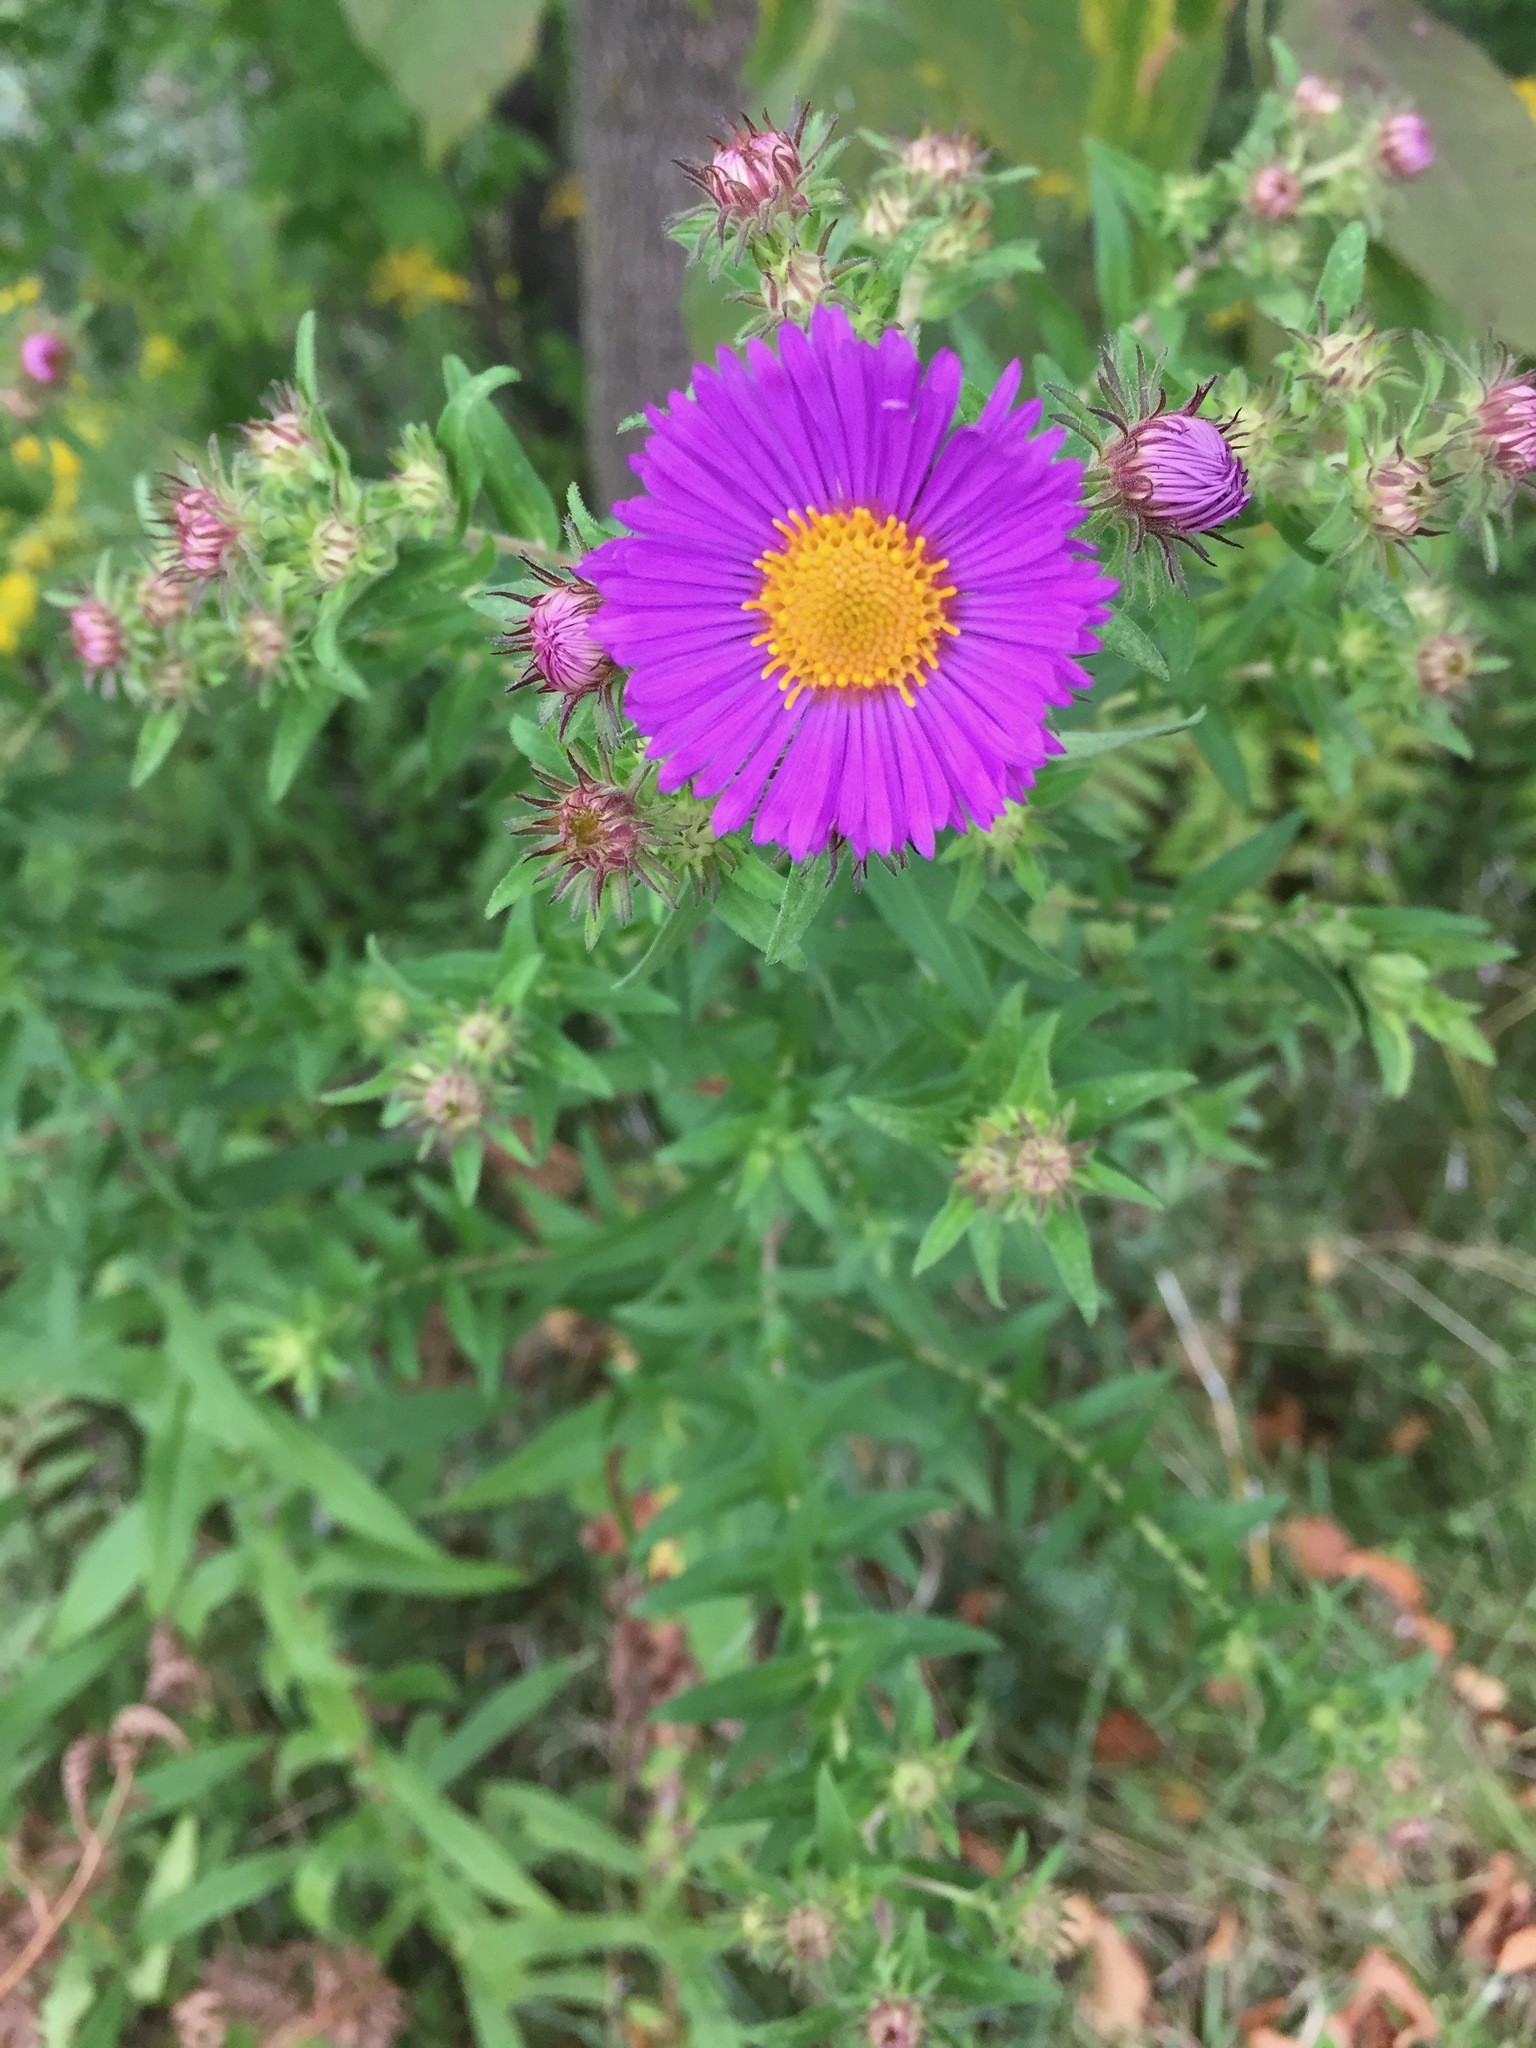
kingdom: Plantae
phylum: Tracheophyta
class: Magnoliopsida
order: Asterales
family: Asteraceae
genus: Symphyotrichum
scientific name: Symphyotrichum novae-angliae
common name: Michaelmas daisy
